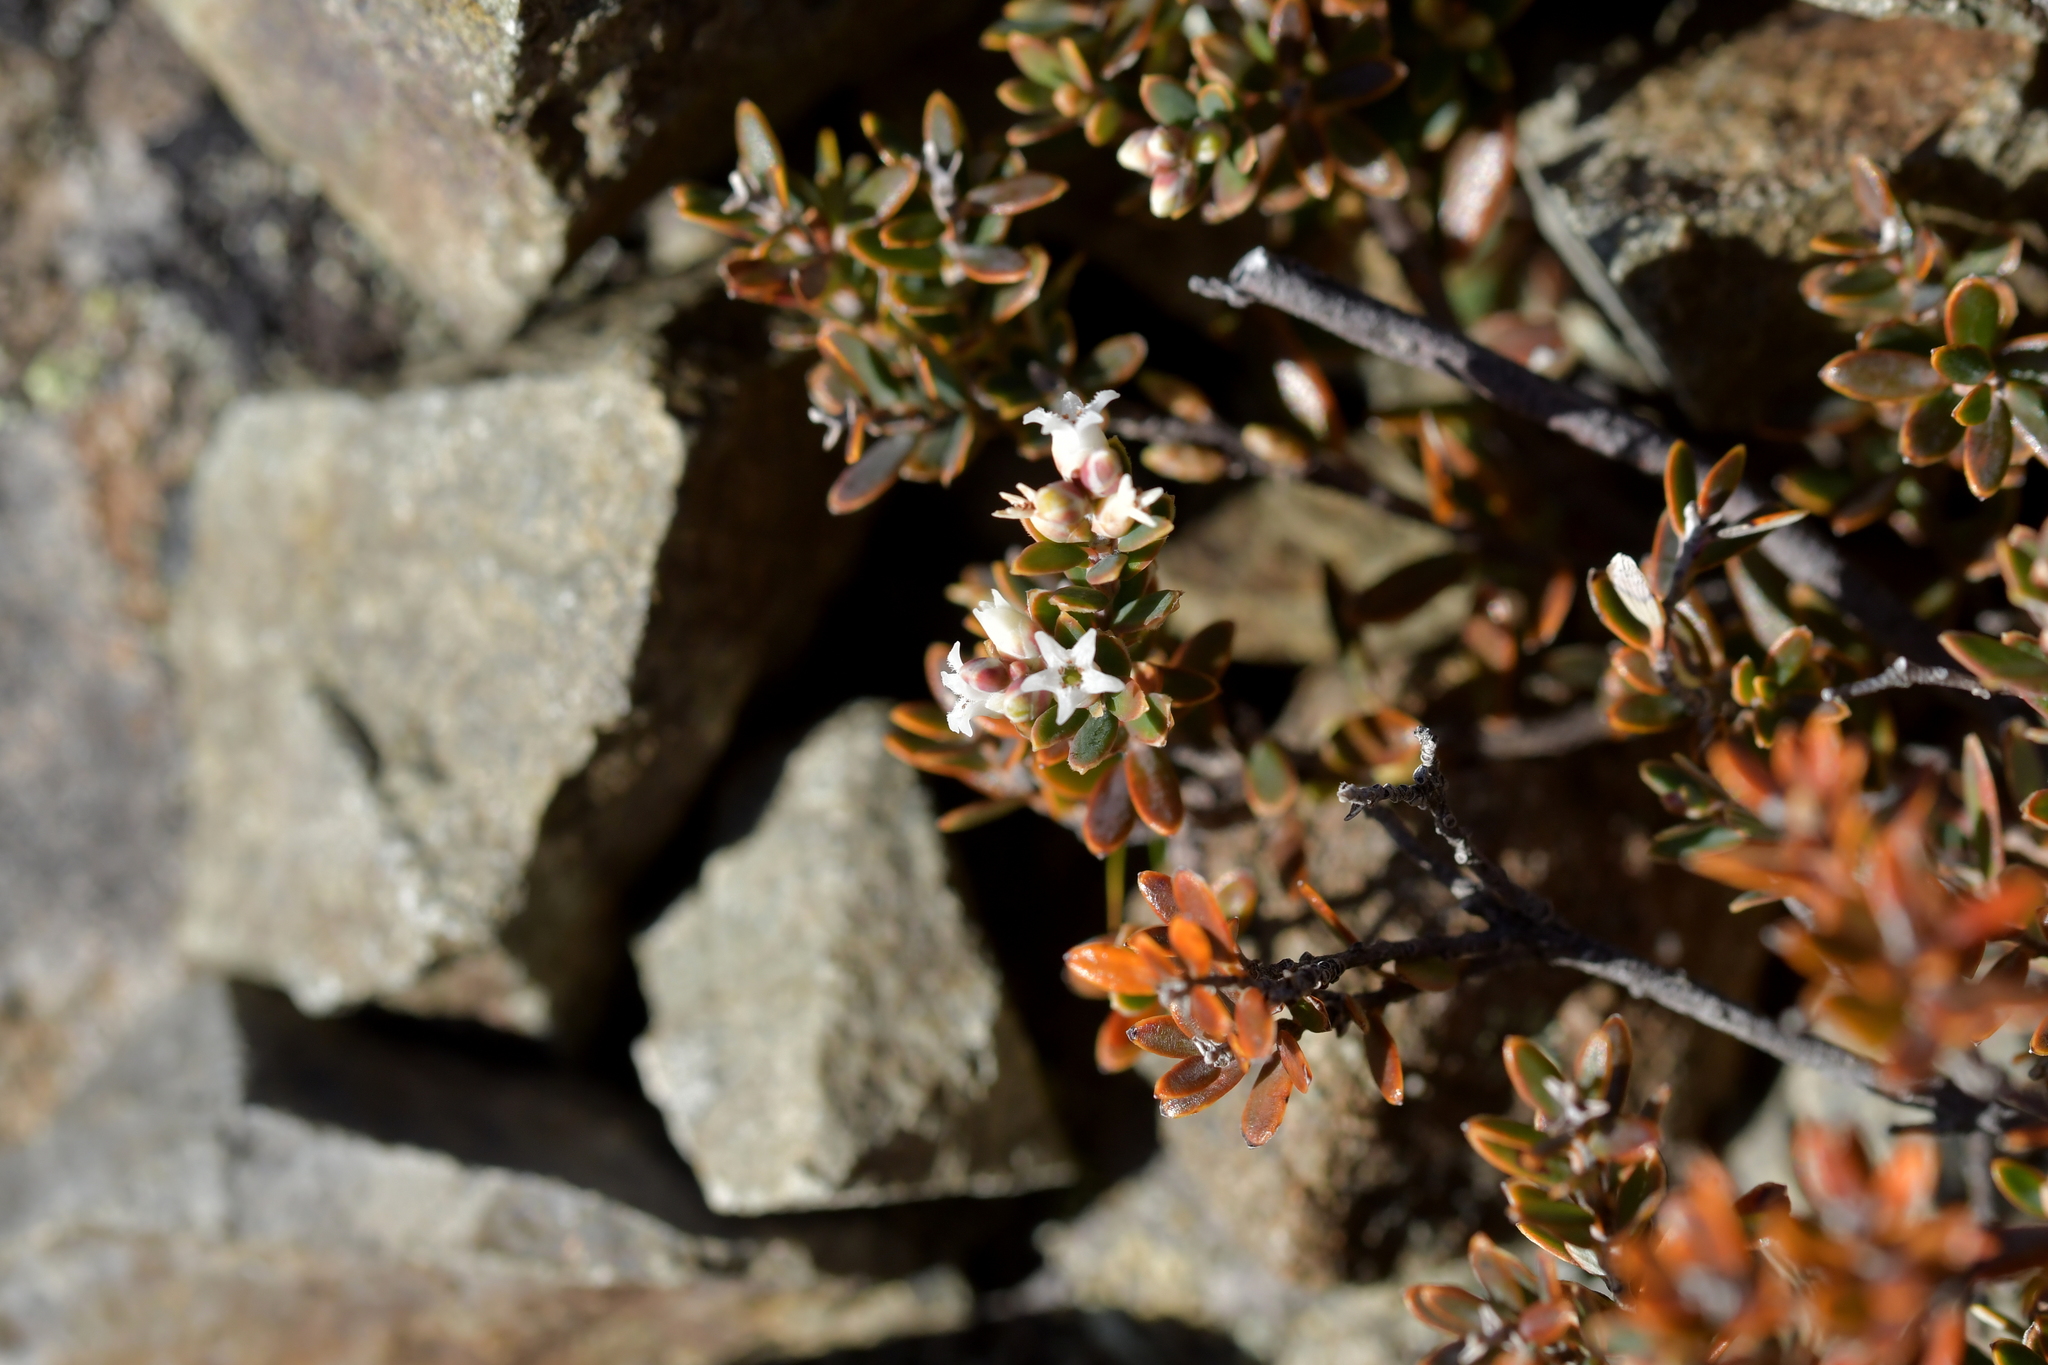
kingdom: Plantae
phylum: Tracheophyta
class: Magnoliopsida
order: Ericales
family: Ericaceae
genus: Acrothamnus
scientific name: Acrothamnus colensoi
